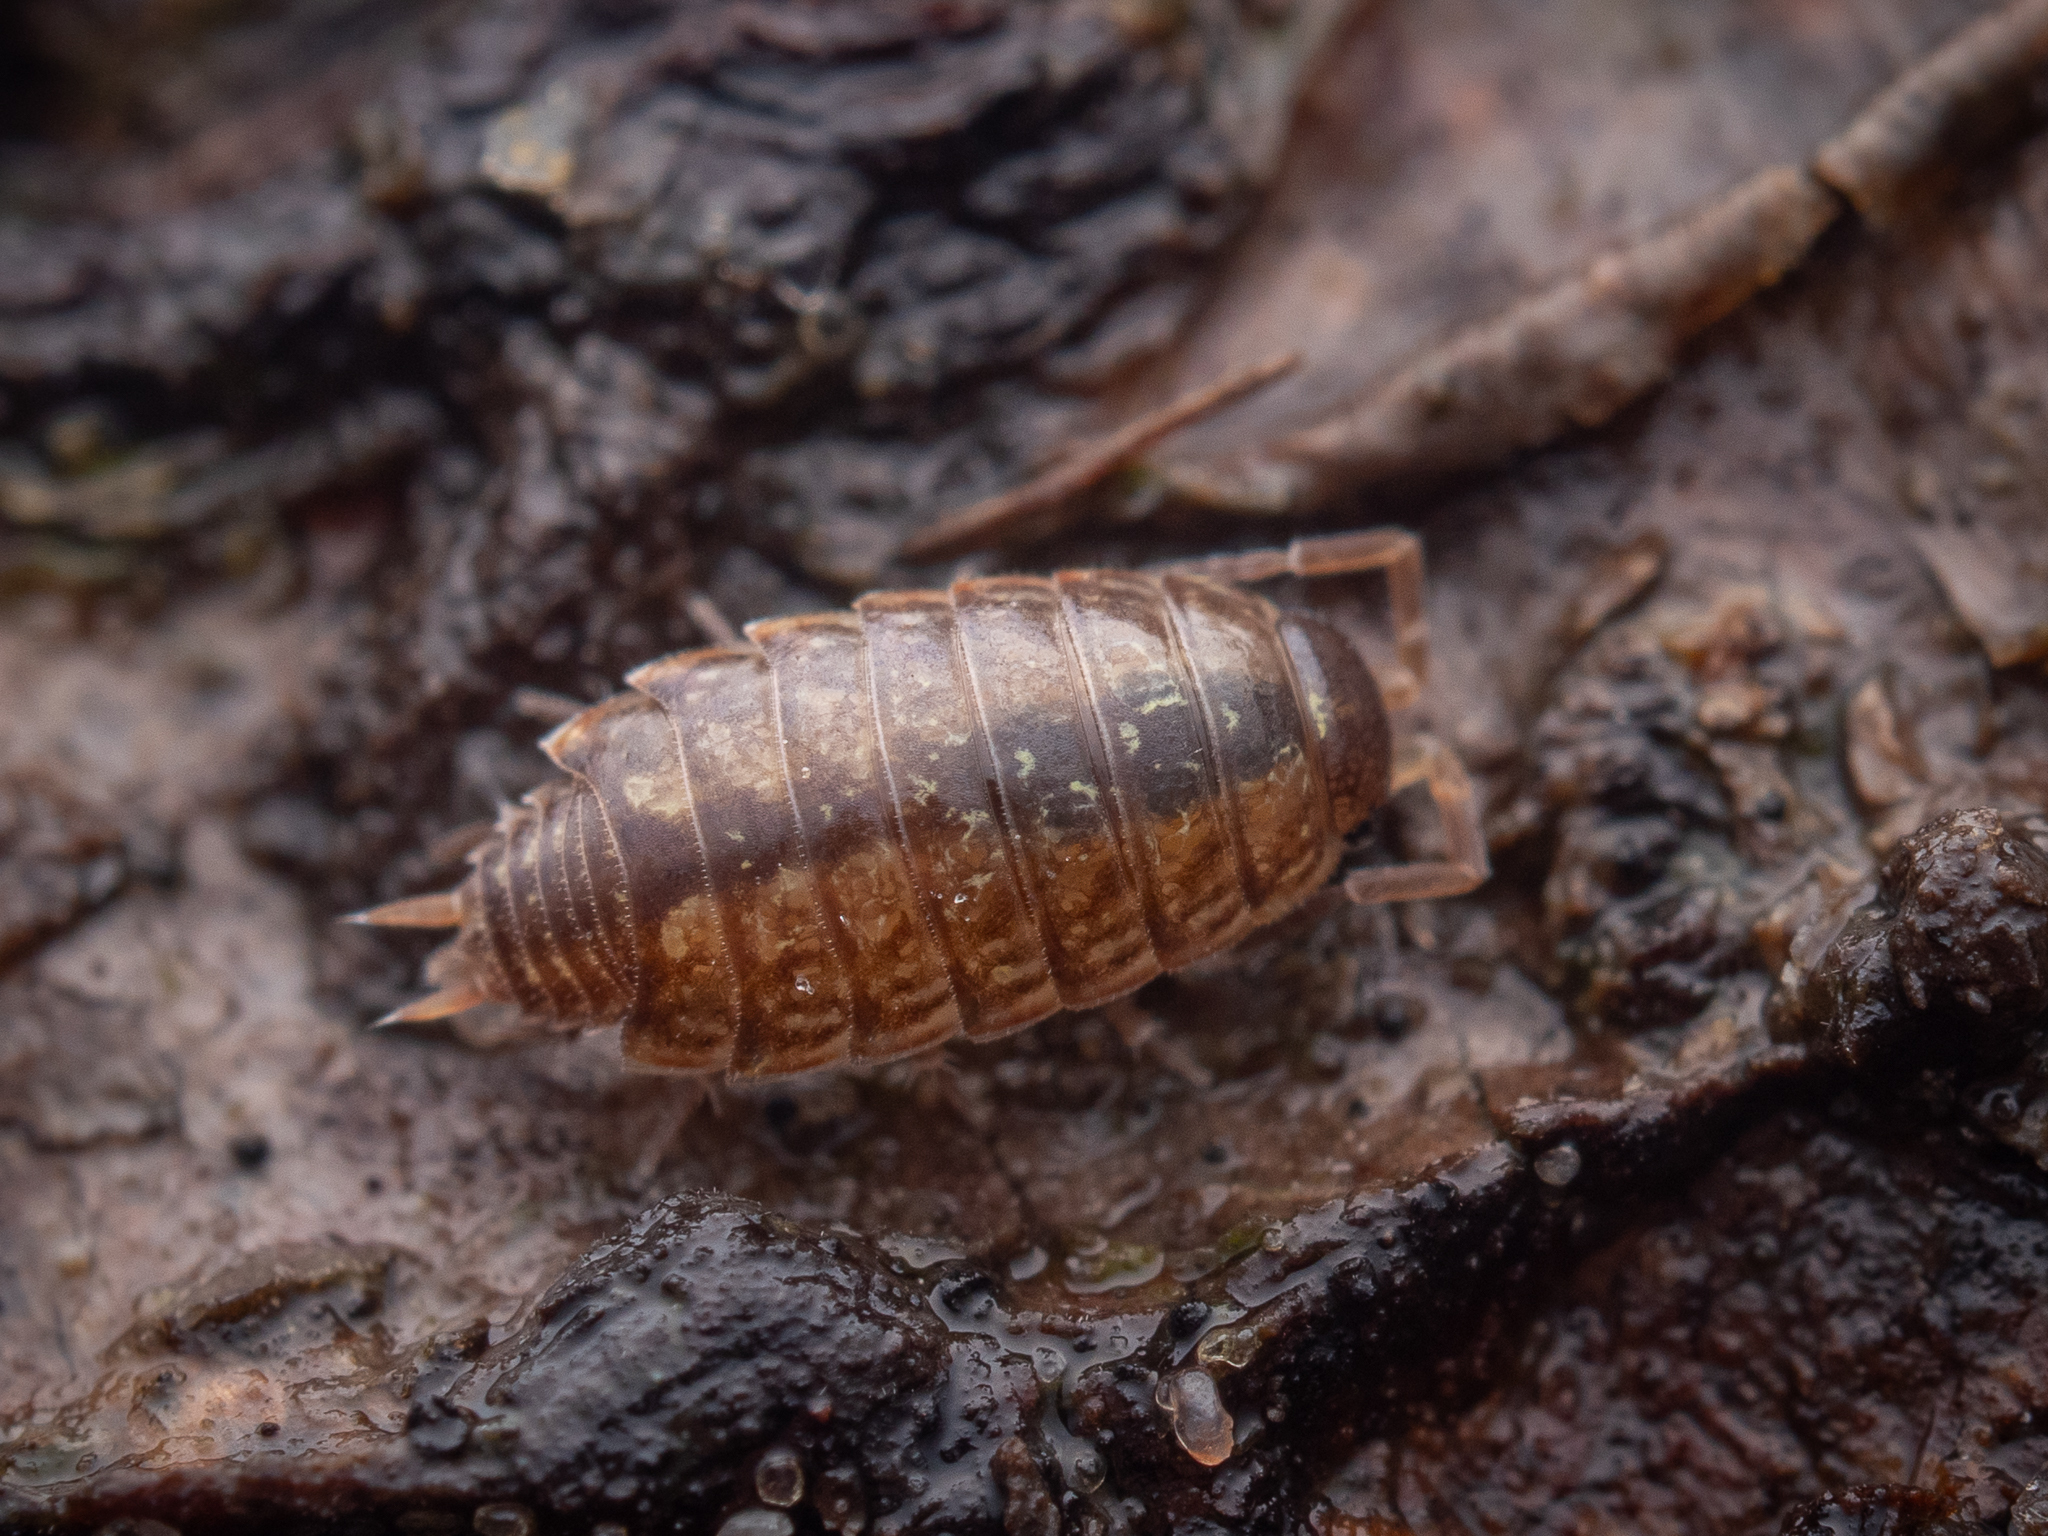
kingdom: Animalia
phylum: Arthropoda
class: Malacostraca
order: Isopoda
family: Philosciidae
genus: Philoscia
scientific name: Philoscia muscorum
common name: Common striped woodlouse
